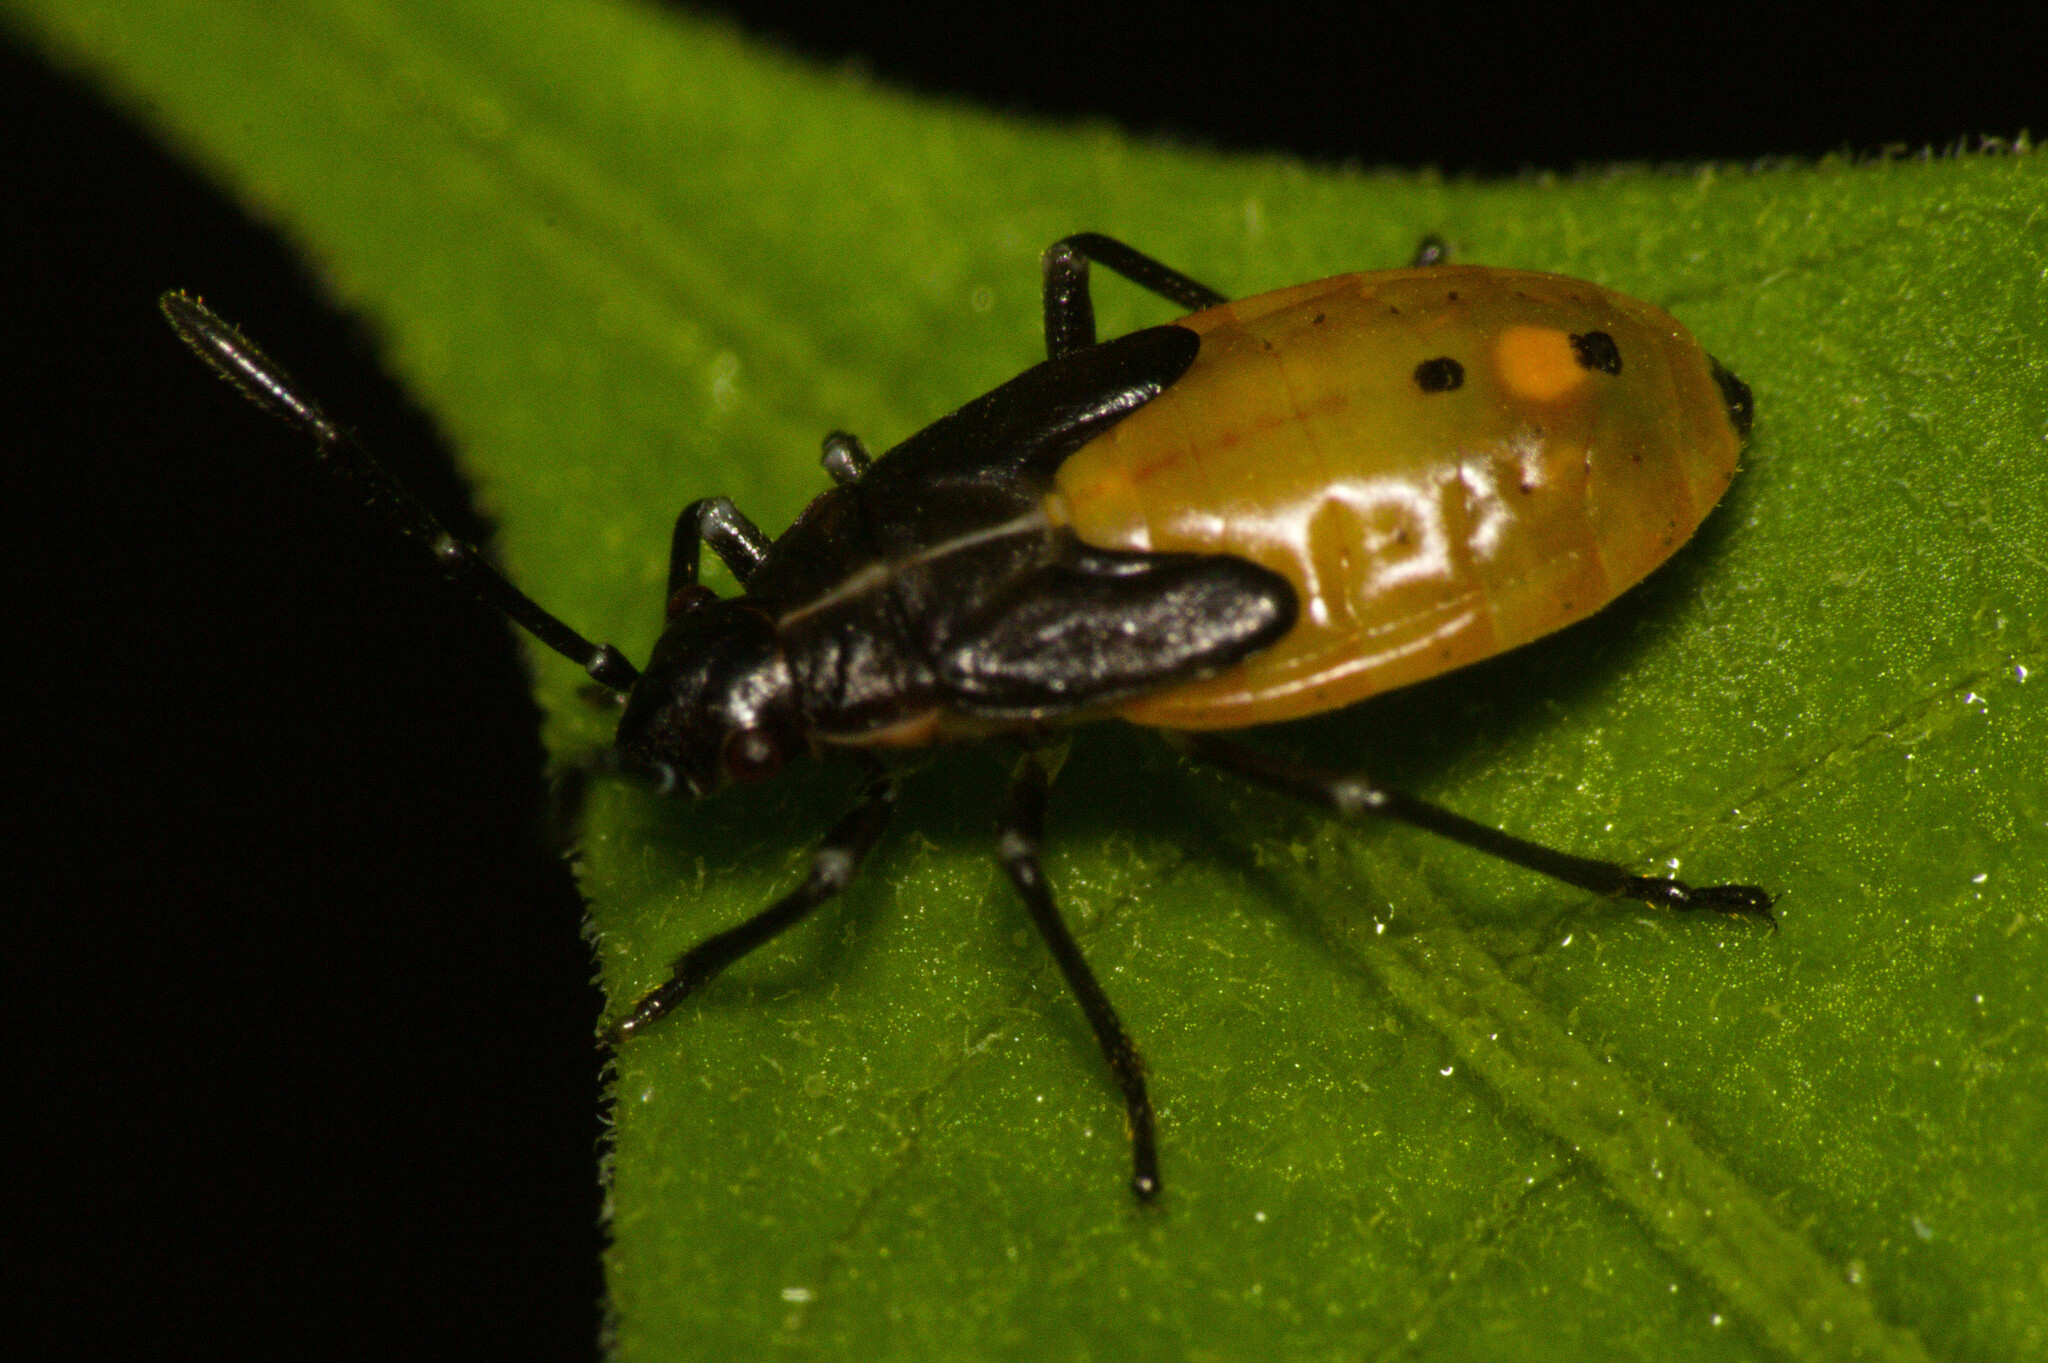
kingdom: Animalia
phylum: Arthropoda
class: Insecta
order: Hemiptera
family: Lygaeidae
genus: Acroleucus
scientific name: Acroleucus coxalis
